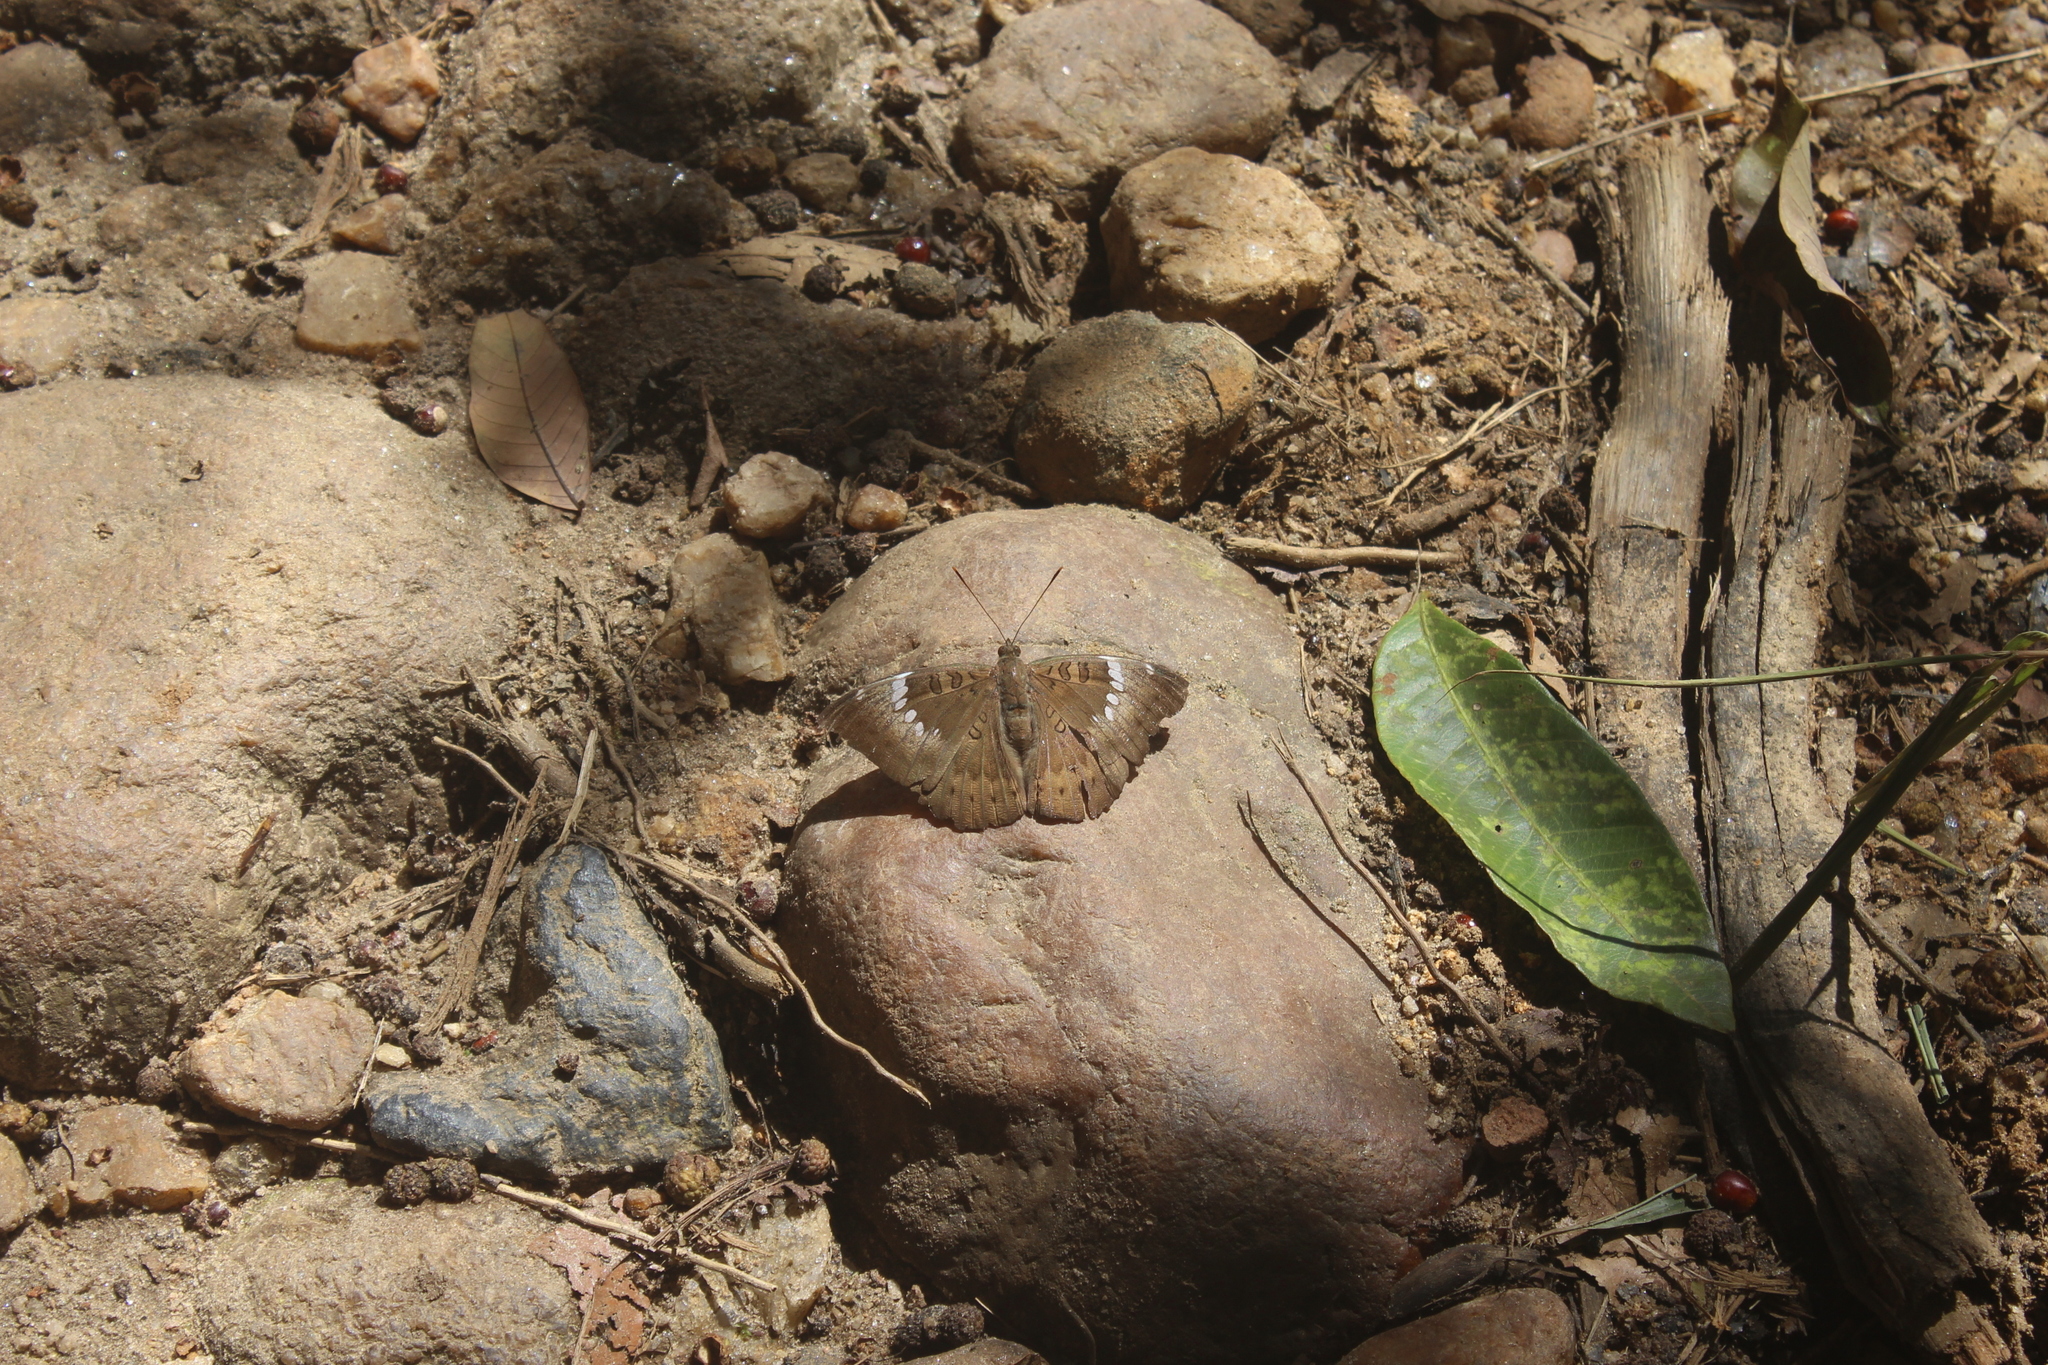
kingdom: Animalia
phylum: Arthropoda
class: Insecta
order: Lepidoptera
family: Nymphalidae
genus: Euthalia
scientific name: Euthalia aconthea
